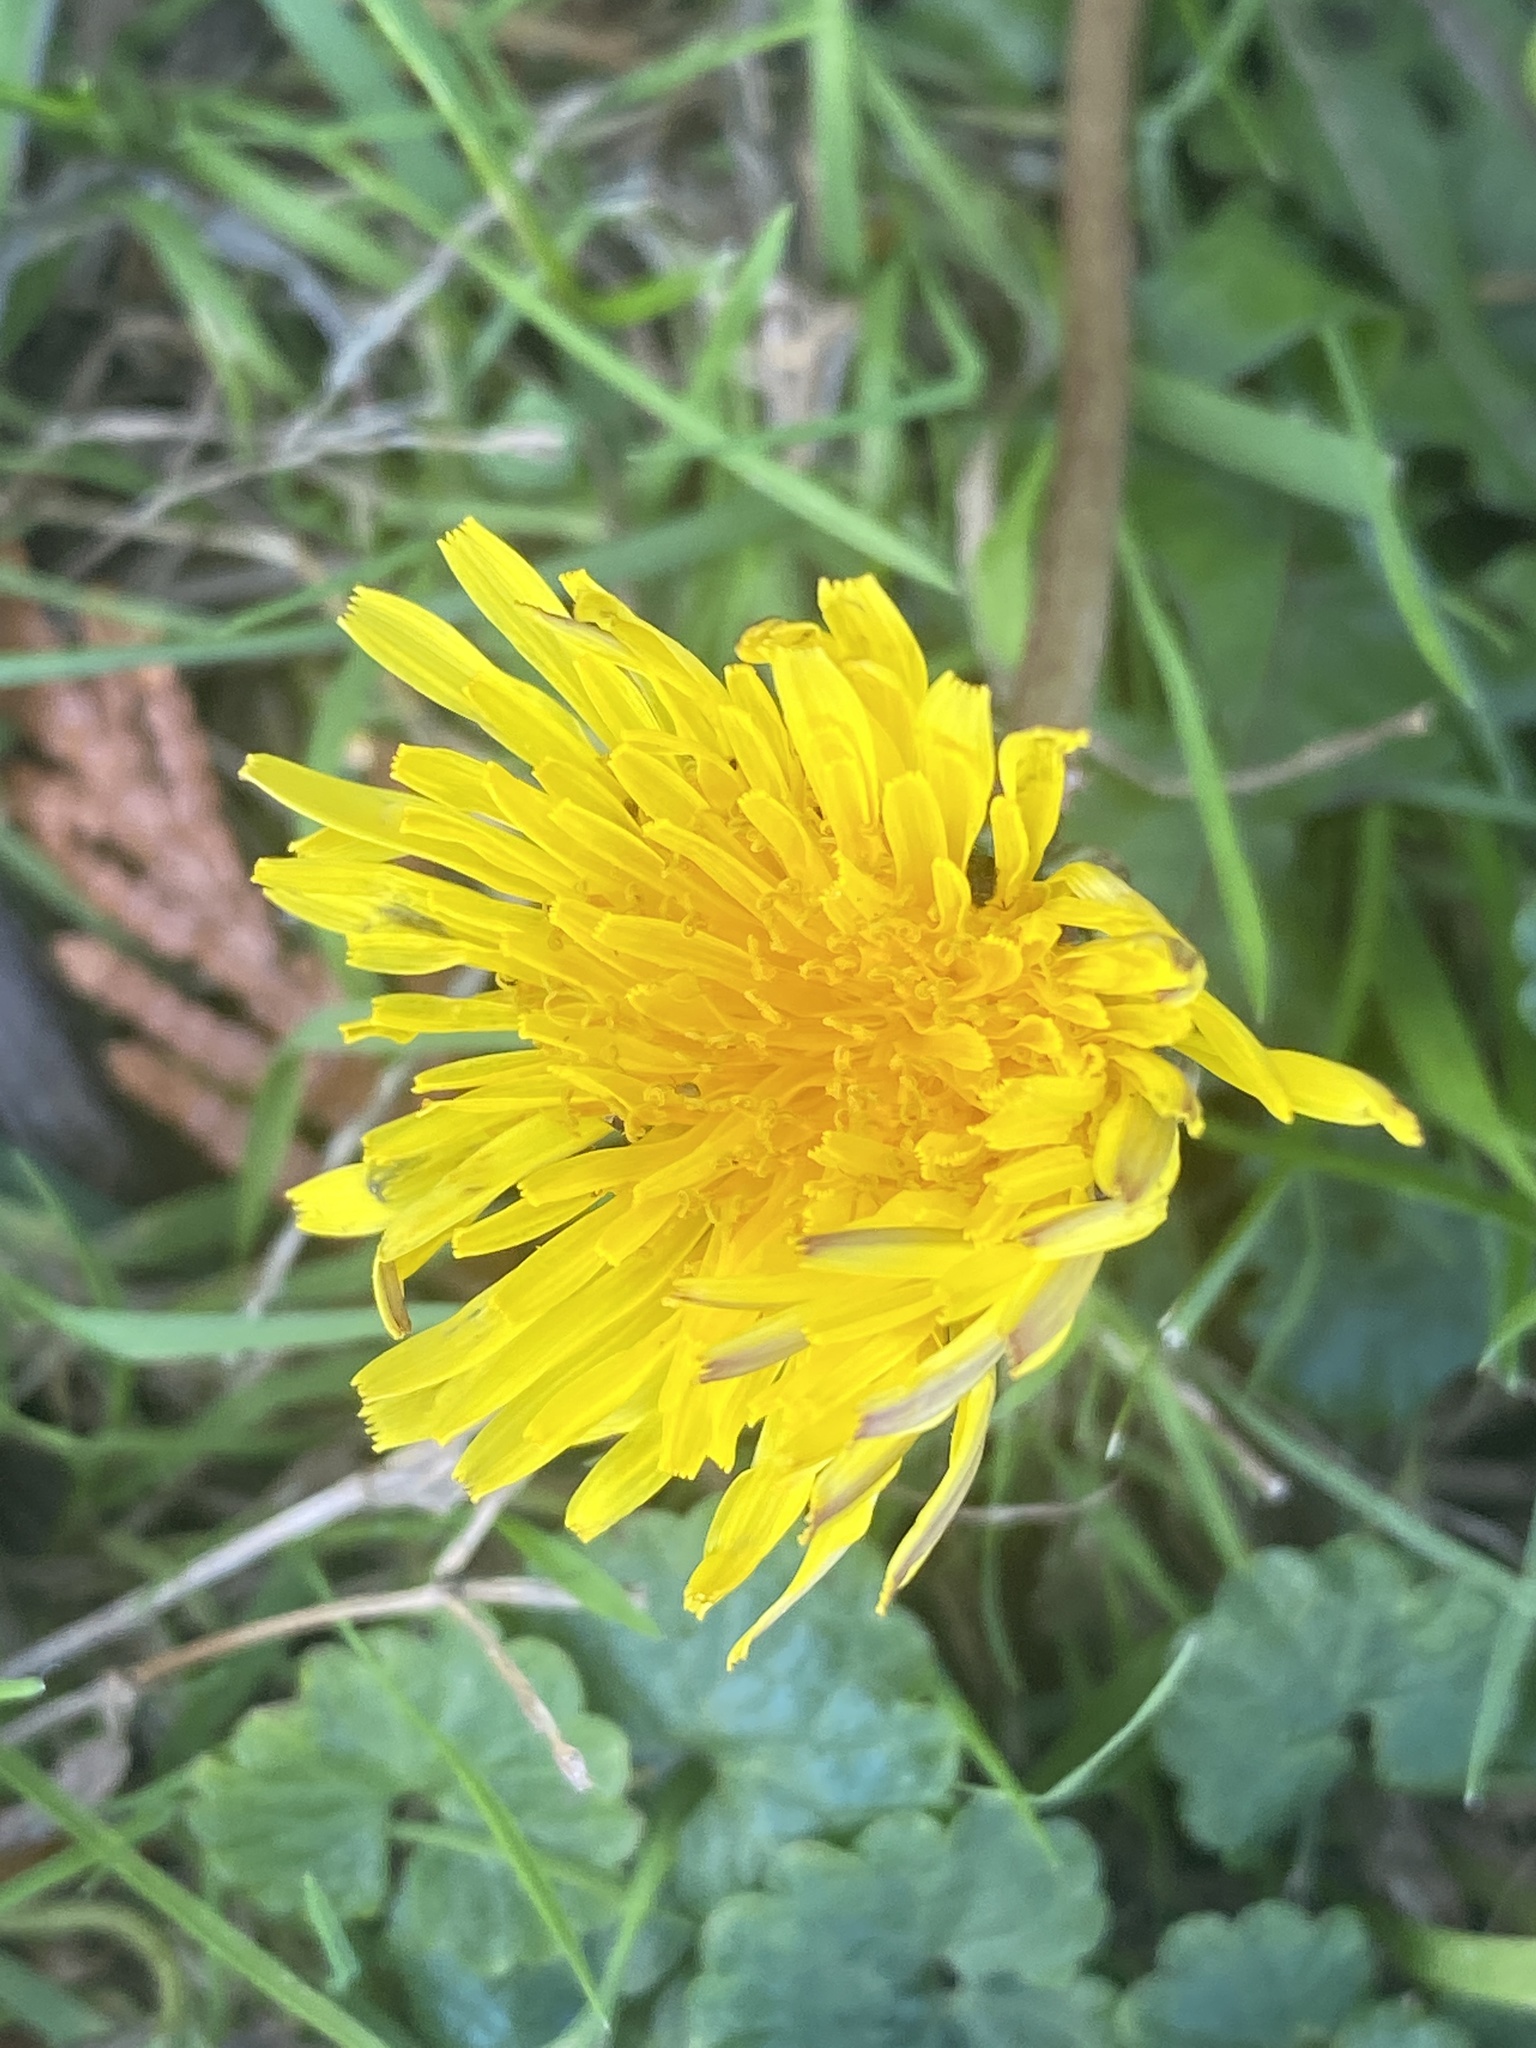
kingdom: Plantae
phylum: Tracheophyta
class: Magnoliopsida
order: Asterales
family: Asteraceae
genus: Taraxacum
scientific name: Taraxacum
